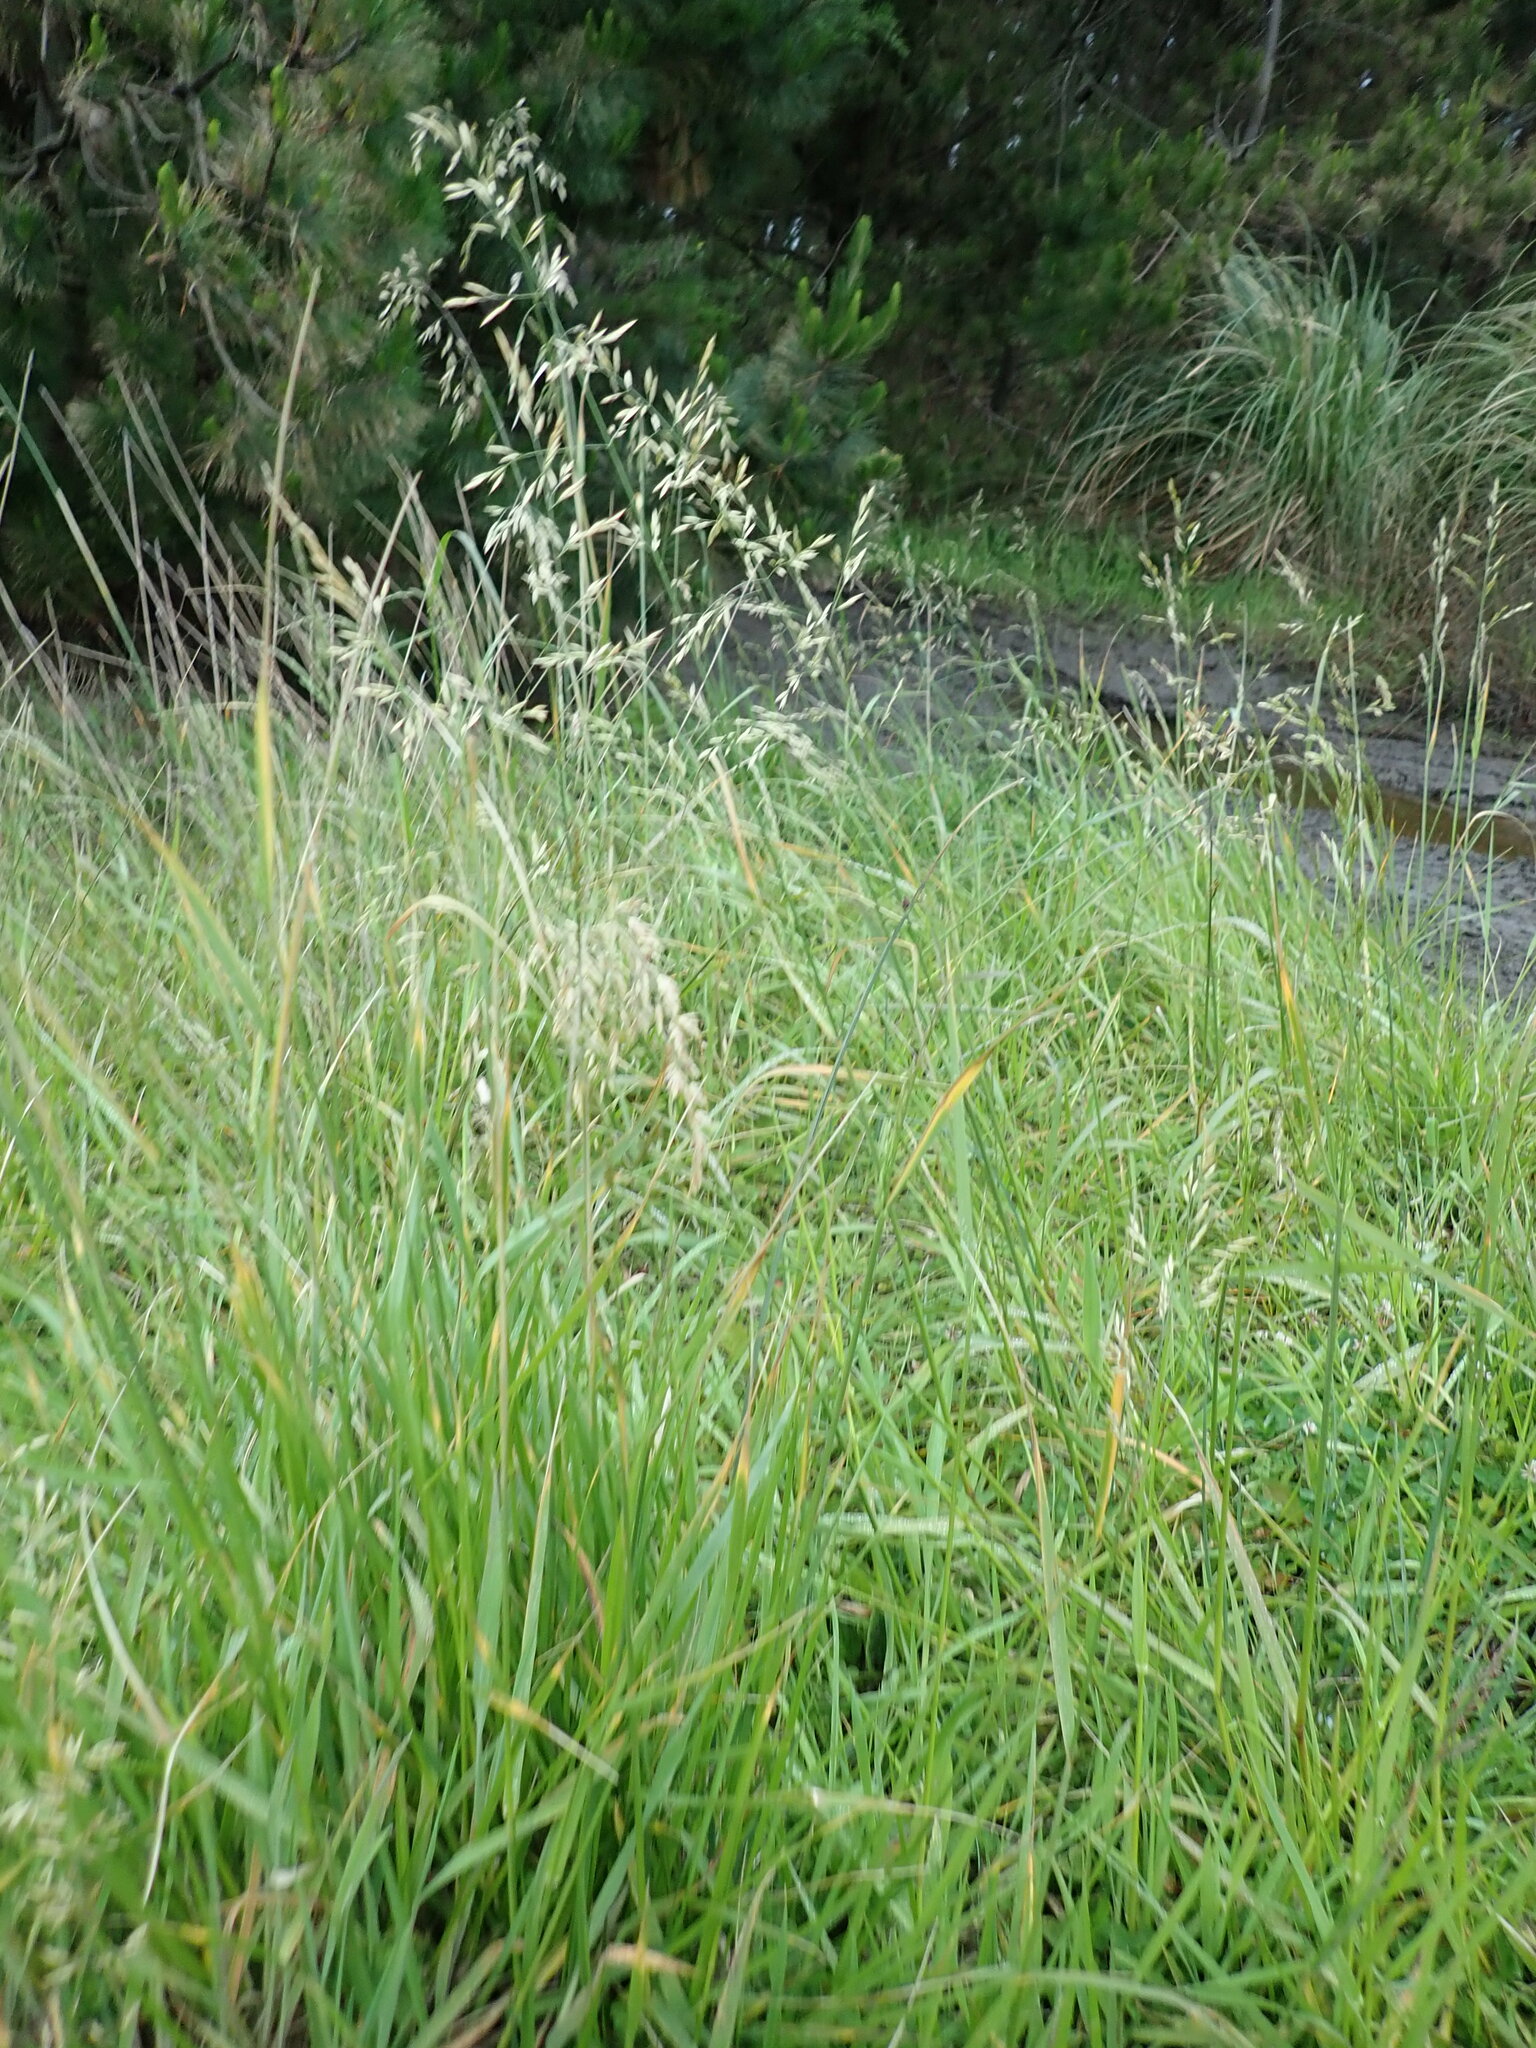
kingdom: Plantae
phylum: Tracheophyta
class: Liliopsida
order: Poales
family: Poaceae
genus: Lolium
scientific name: Lolium arundinaceum
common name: Reed fescue
